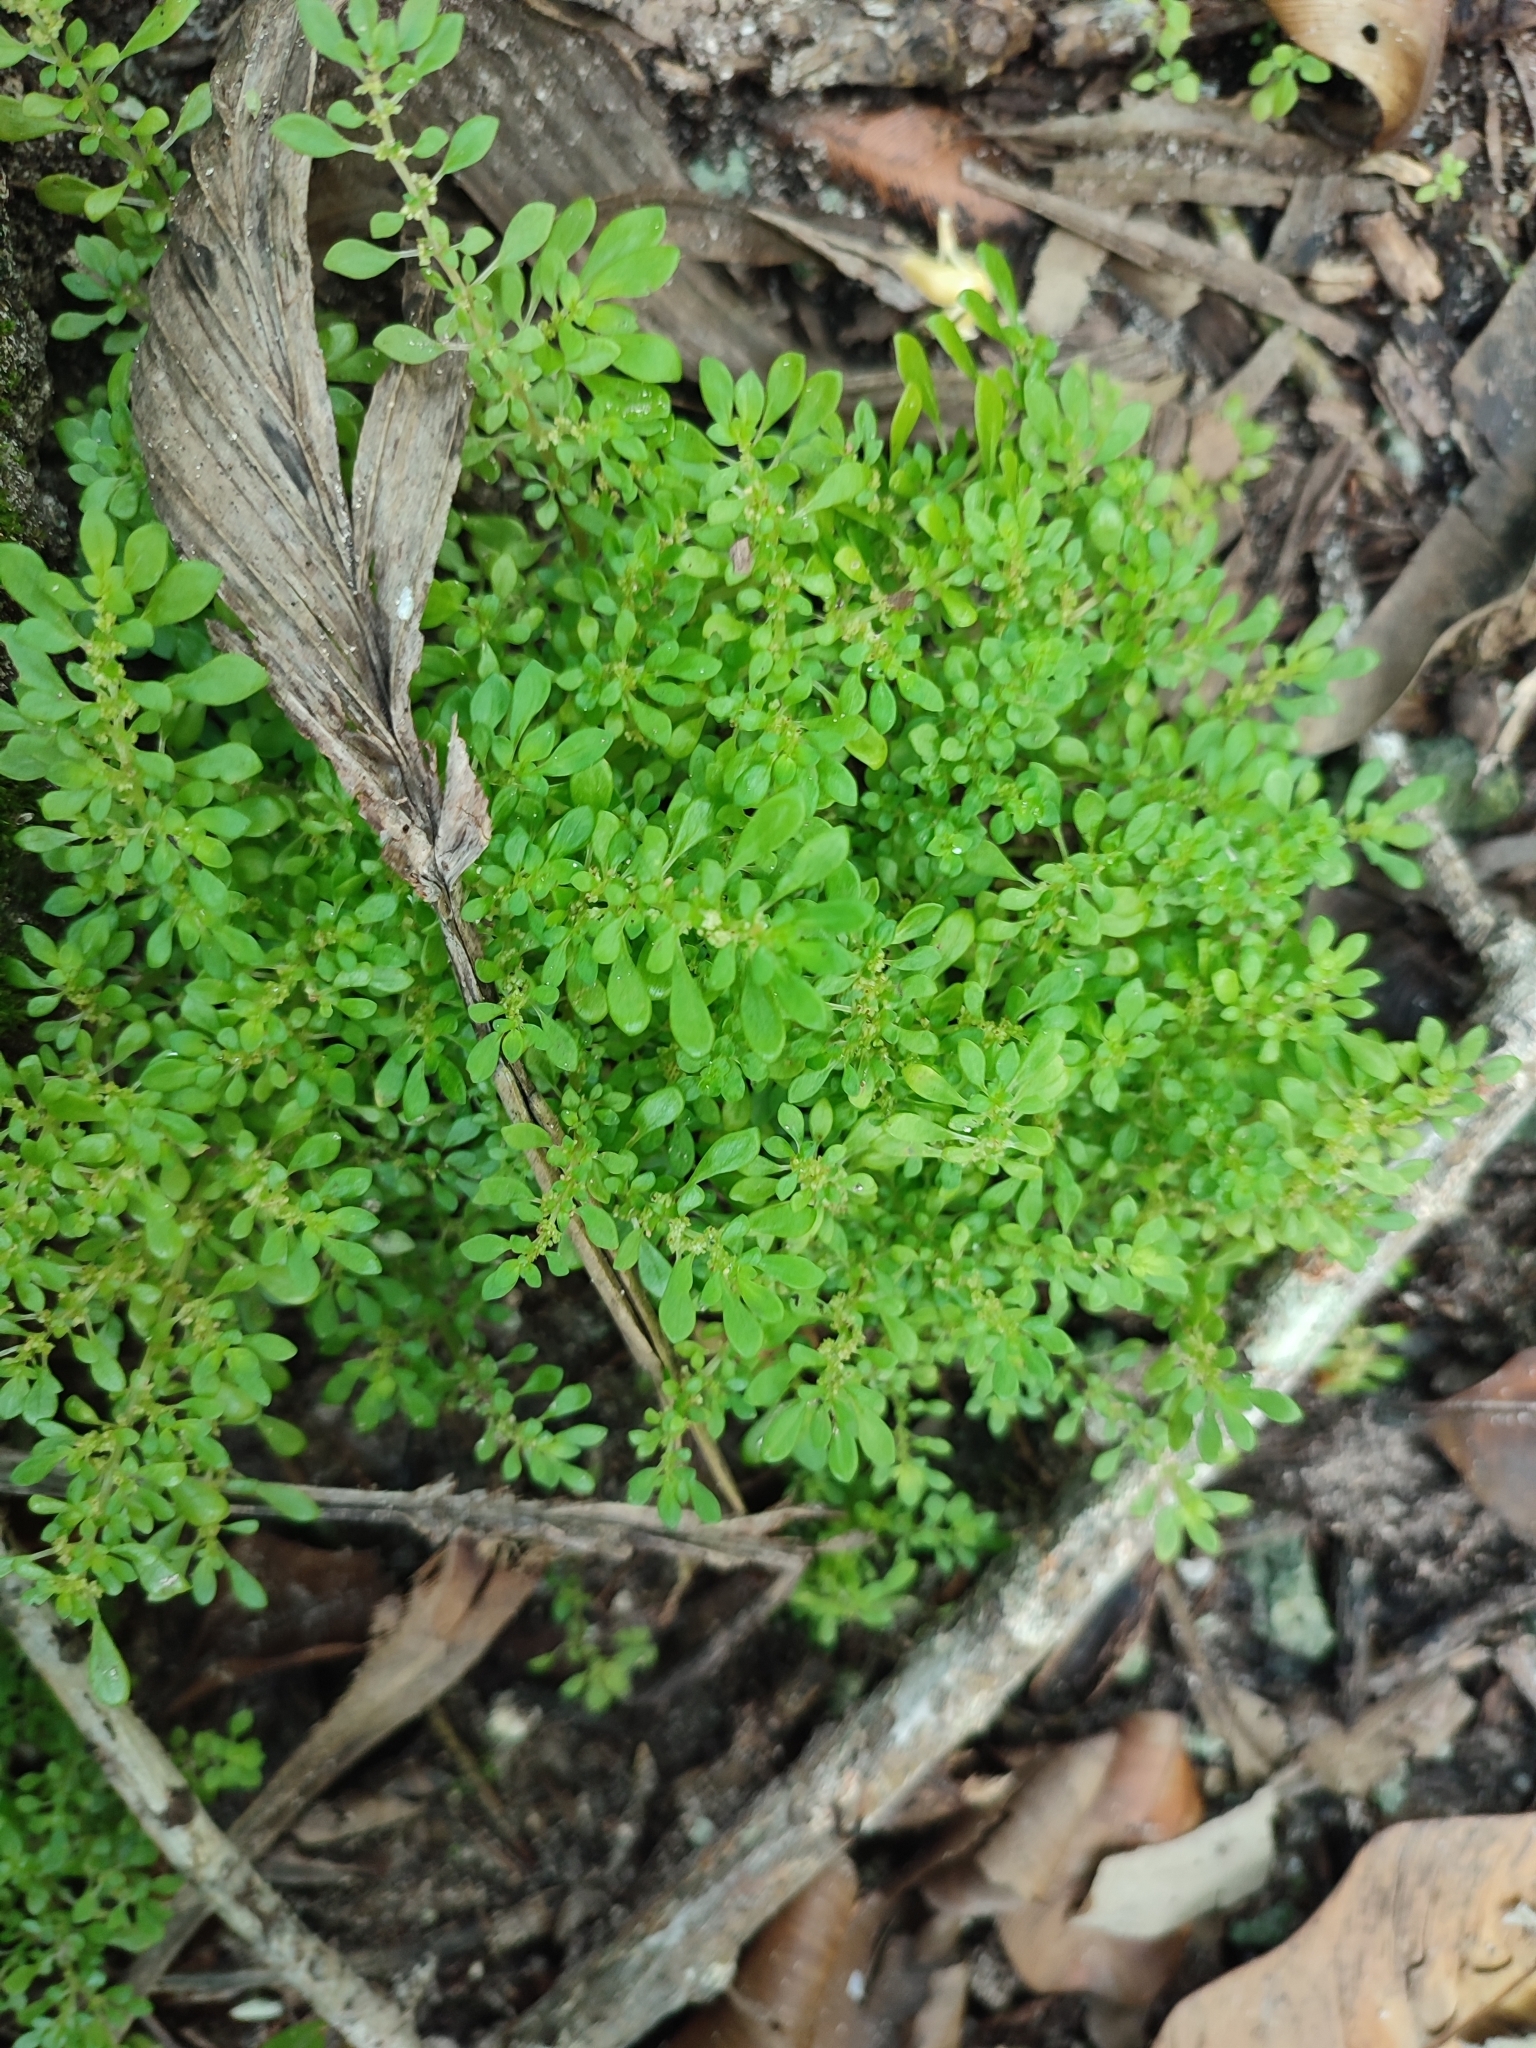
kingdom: Plantae
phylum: Tracheophyta
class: Magnoliopsida
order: Rosales
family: Urticaceae
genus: Pilea
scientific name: Pilea microphylla
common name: Artillery-plant
